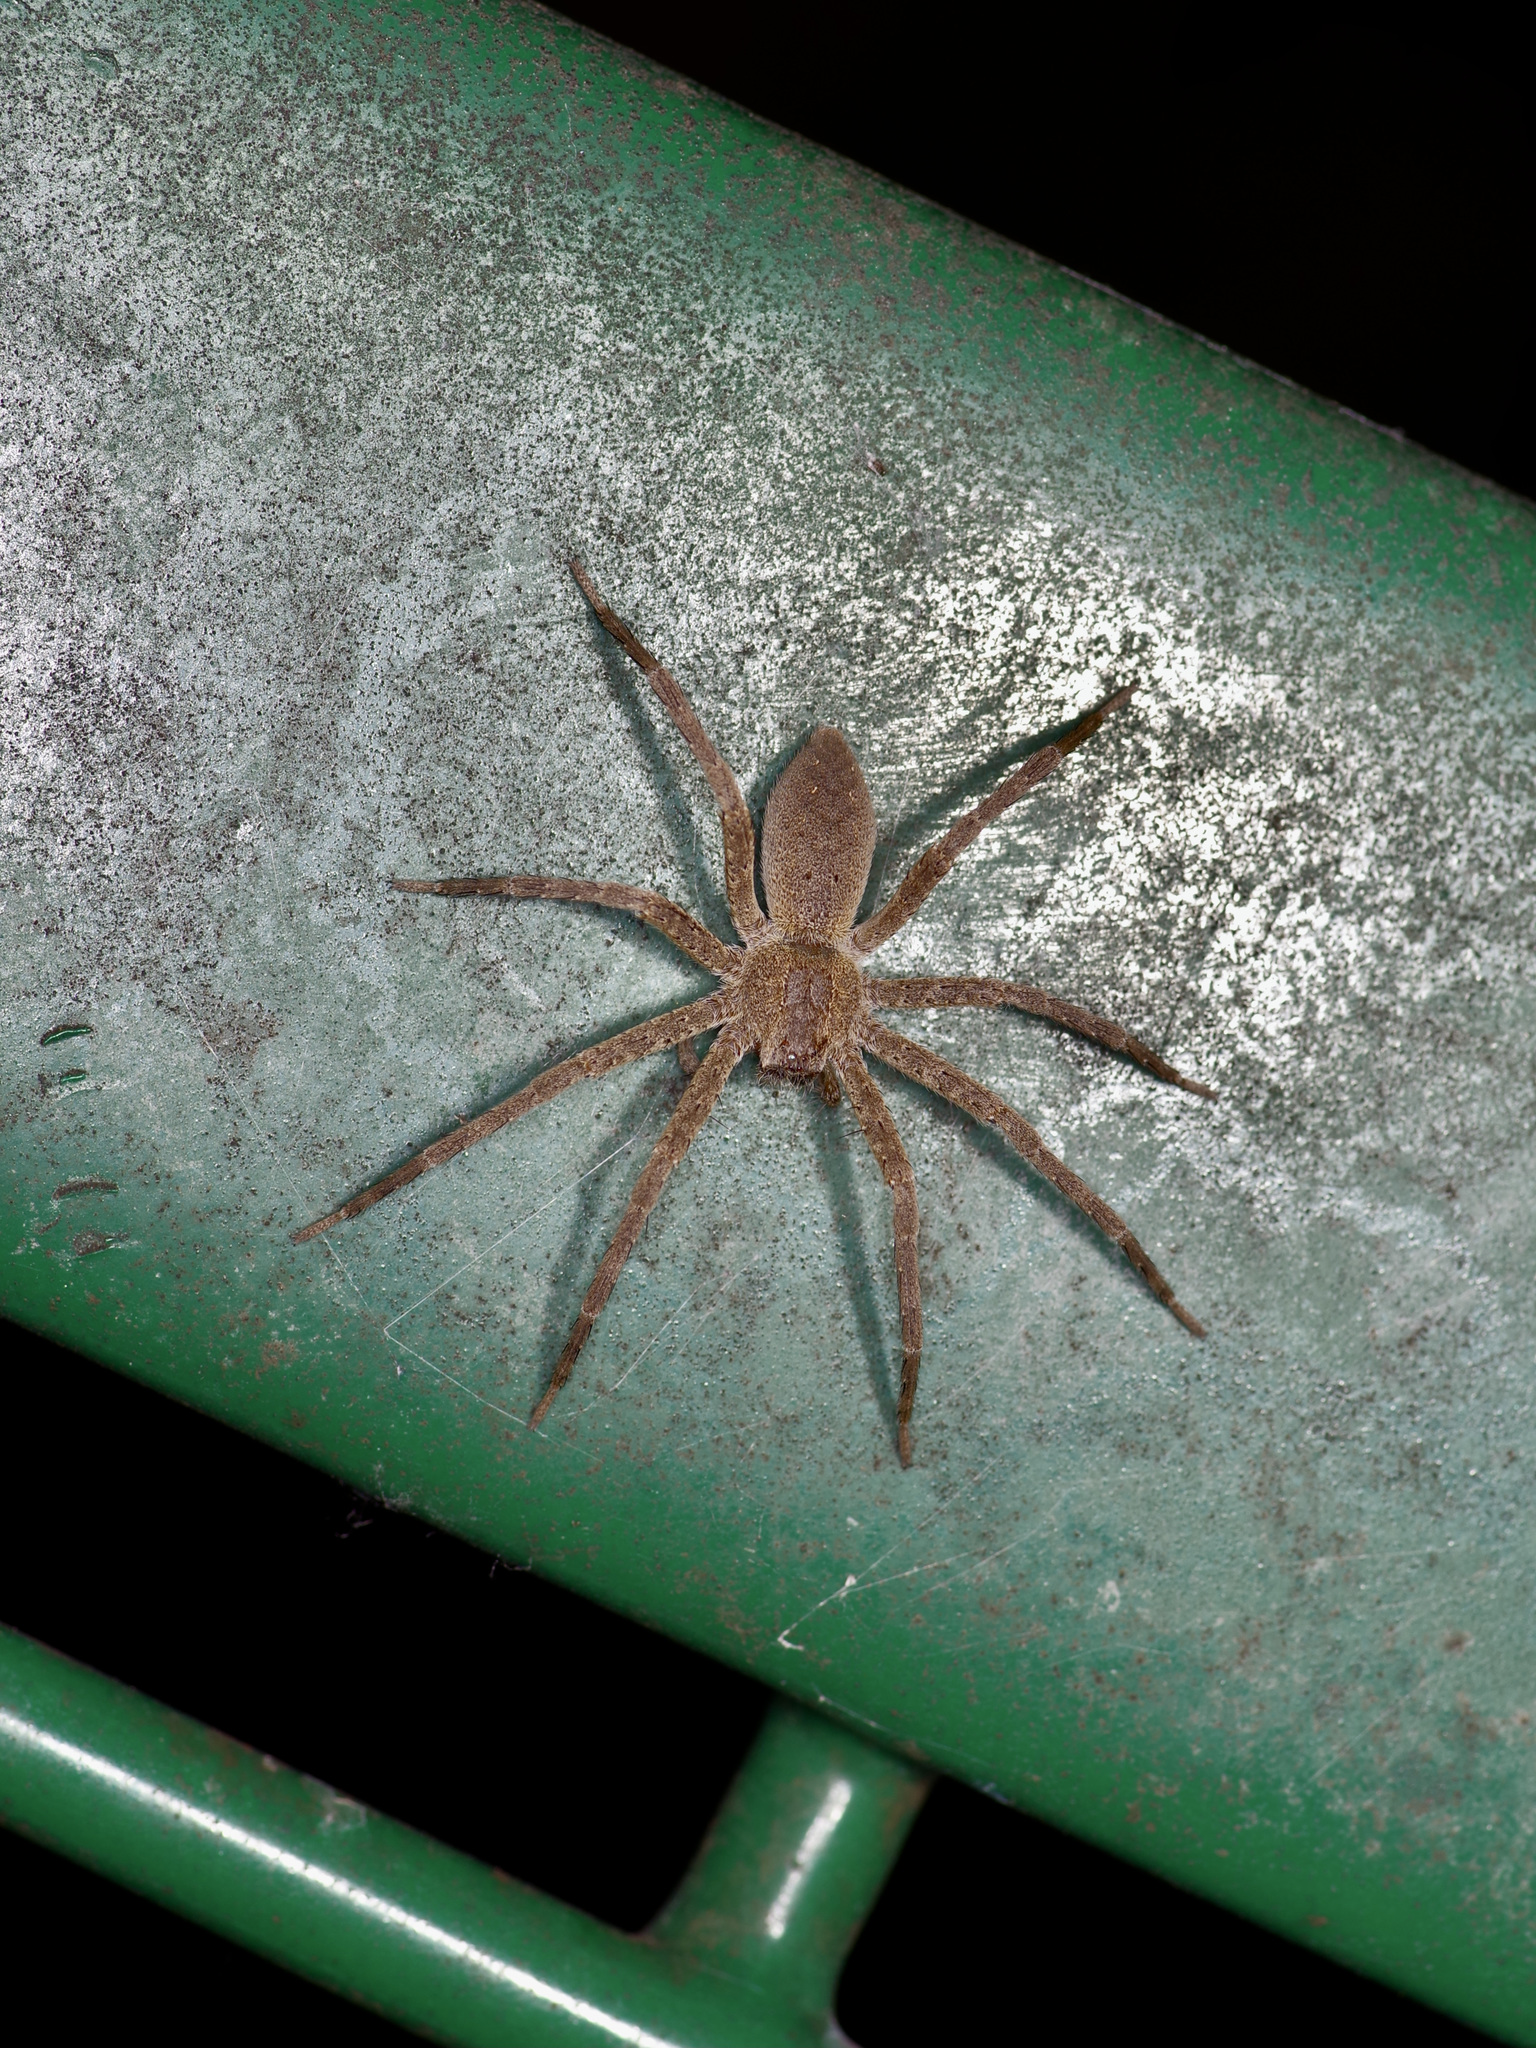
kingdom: Animalia
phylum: Arthropoda
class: Arachnida
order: Araneae
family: Pisauridae
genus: Pisaurina
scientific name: Pisaurina mira
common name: American nursery web spider
